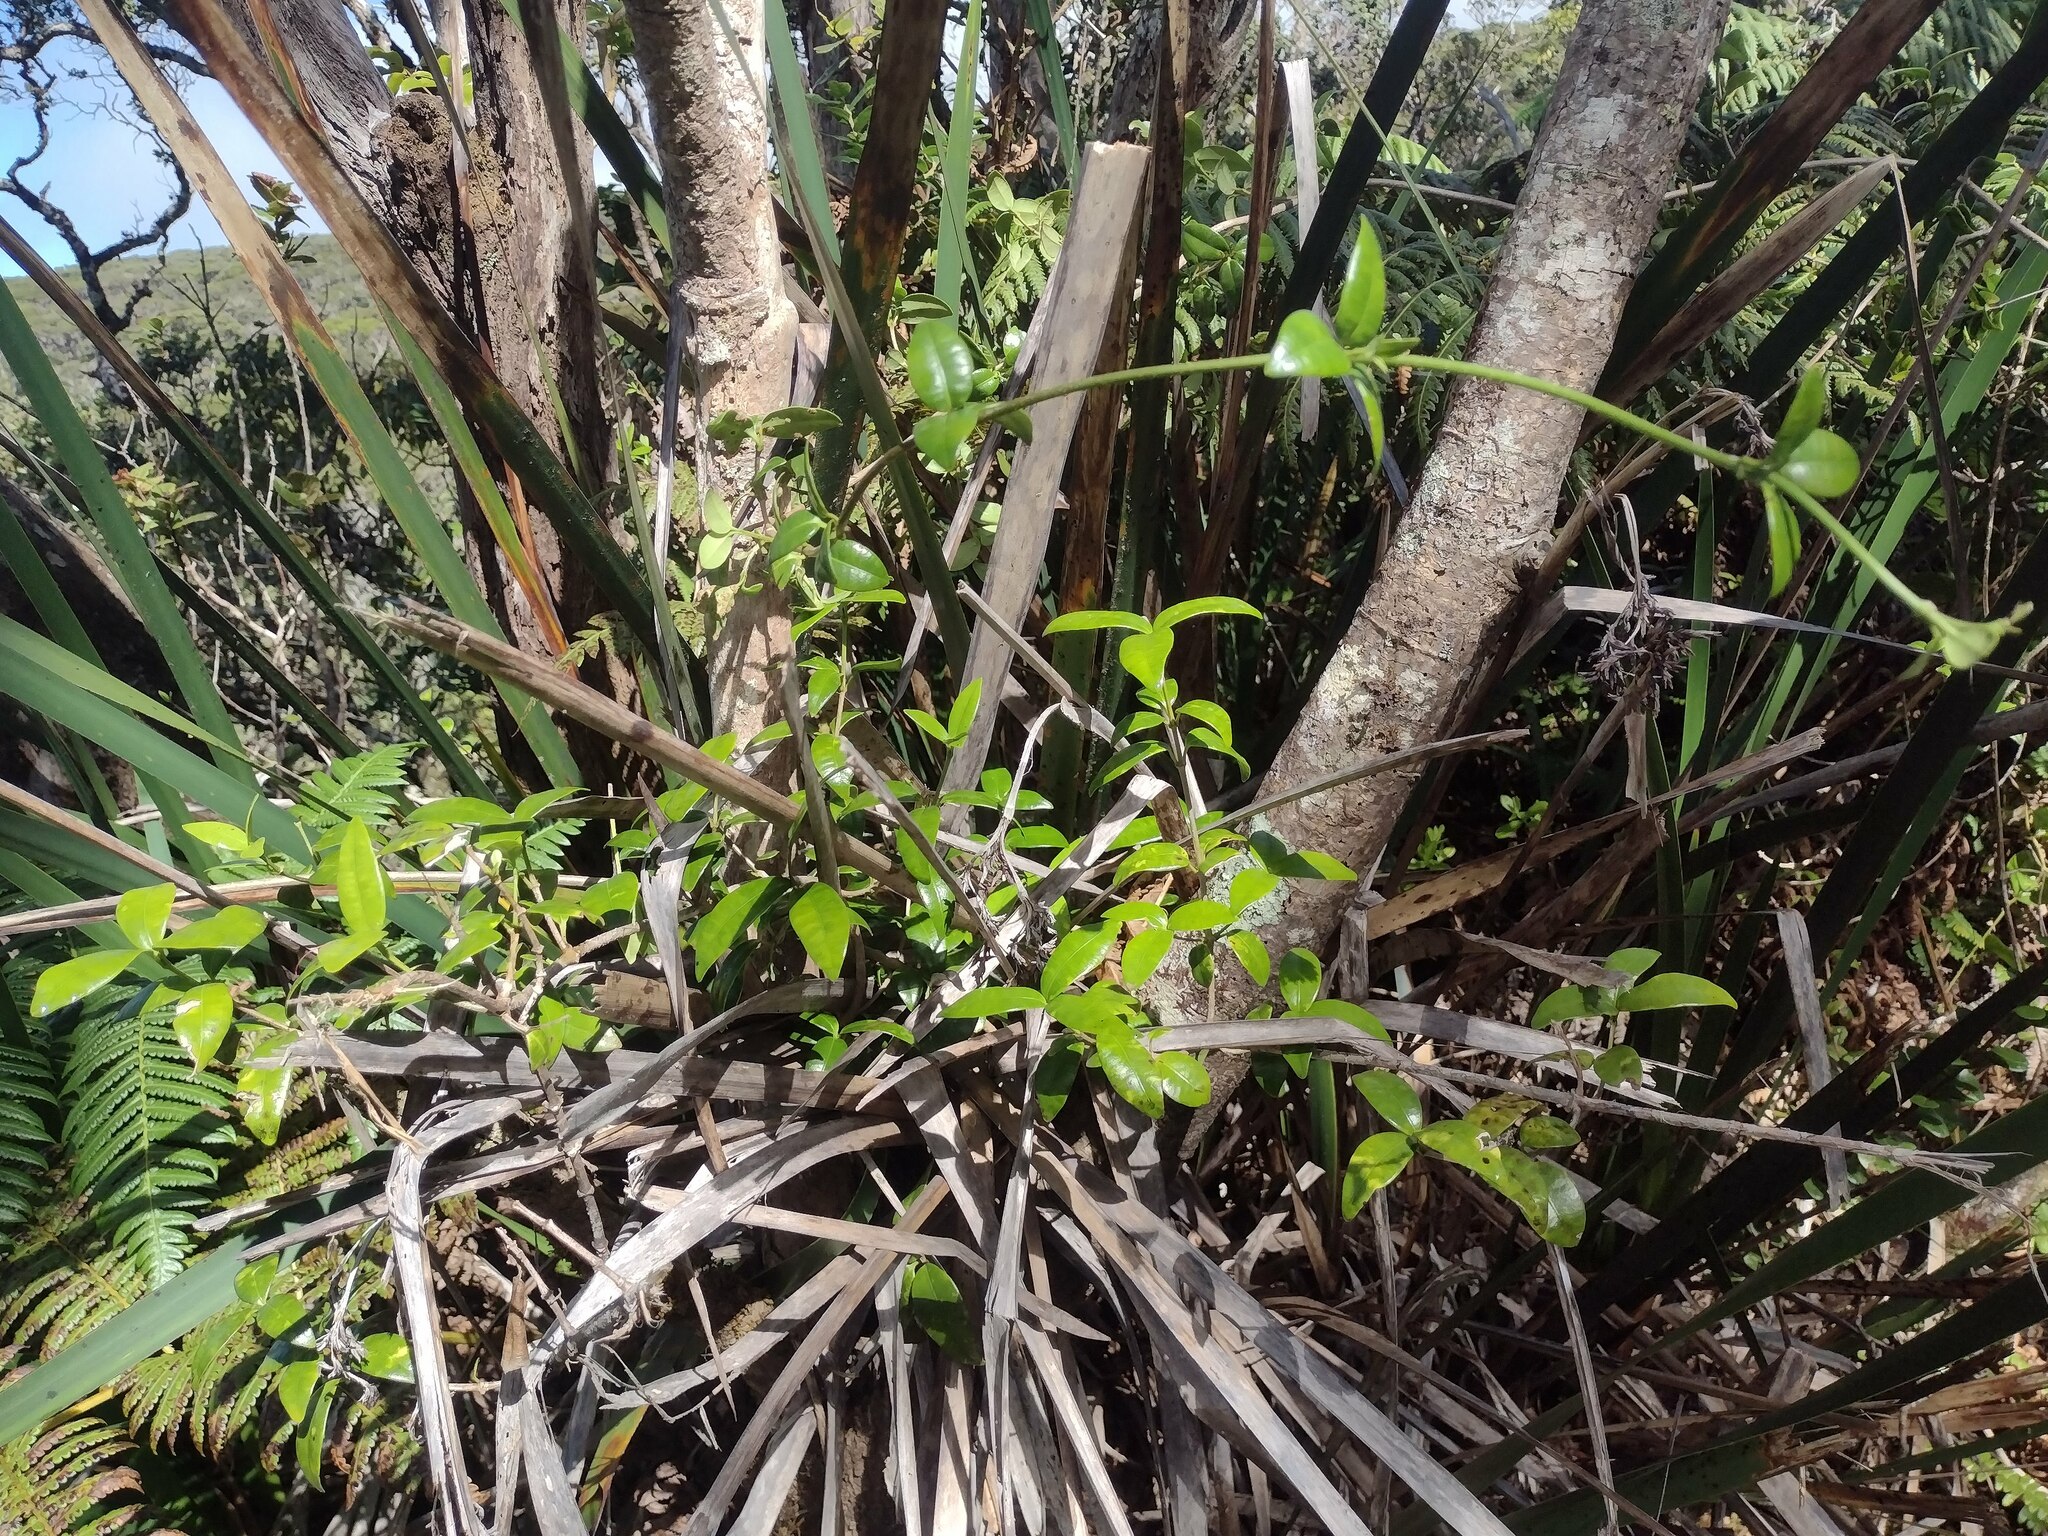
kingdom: Plantae
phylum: Tracheophyta
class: Magnoliopsida
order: Gentianales
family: Apocynaceae
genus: Alyxia
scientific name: Alyxia stellata
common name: Maile
